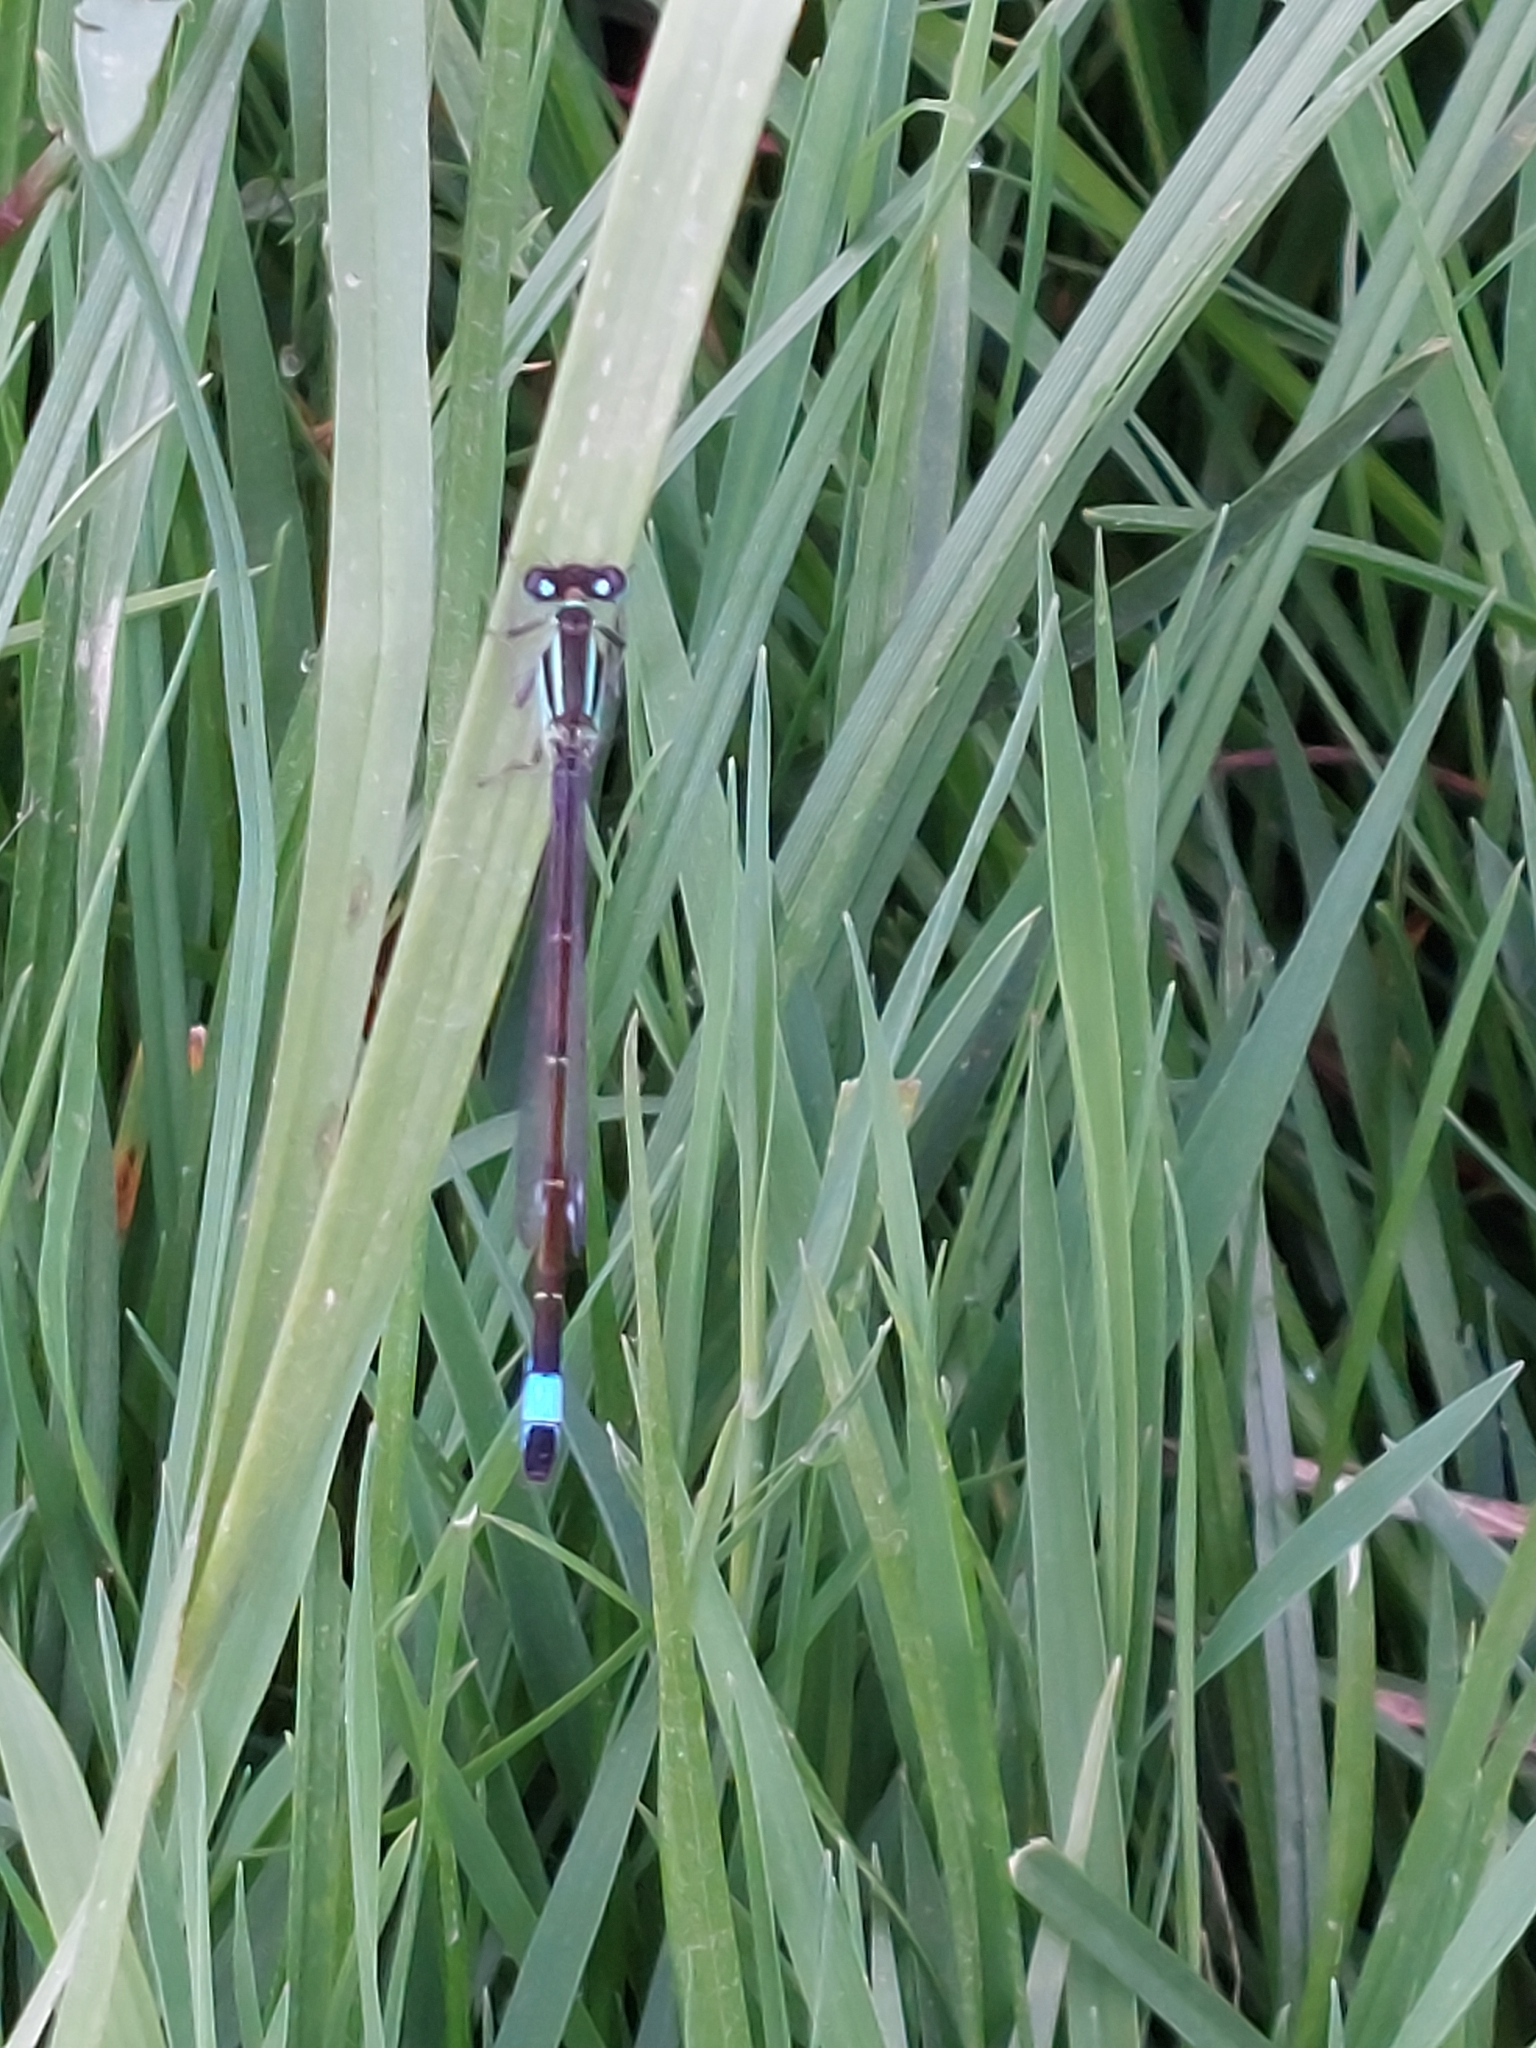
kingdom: Animalia
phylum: Arthropoda
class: Insecta
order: Odonata
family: Coenagrionidae
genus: Ischnura
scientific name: Ischnura elegans
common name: Blue-tailed damselfly
